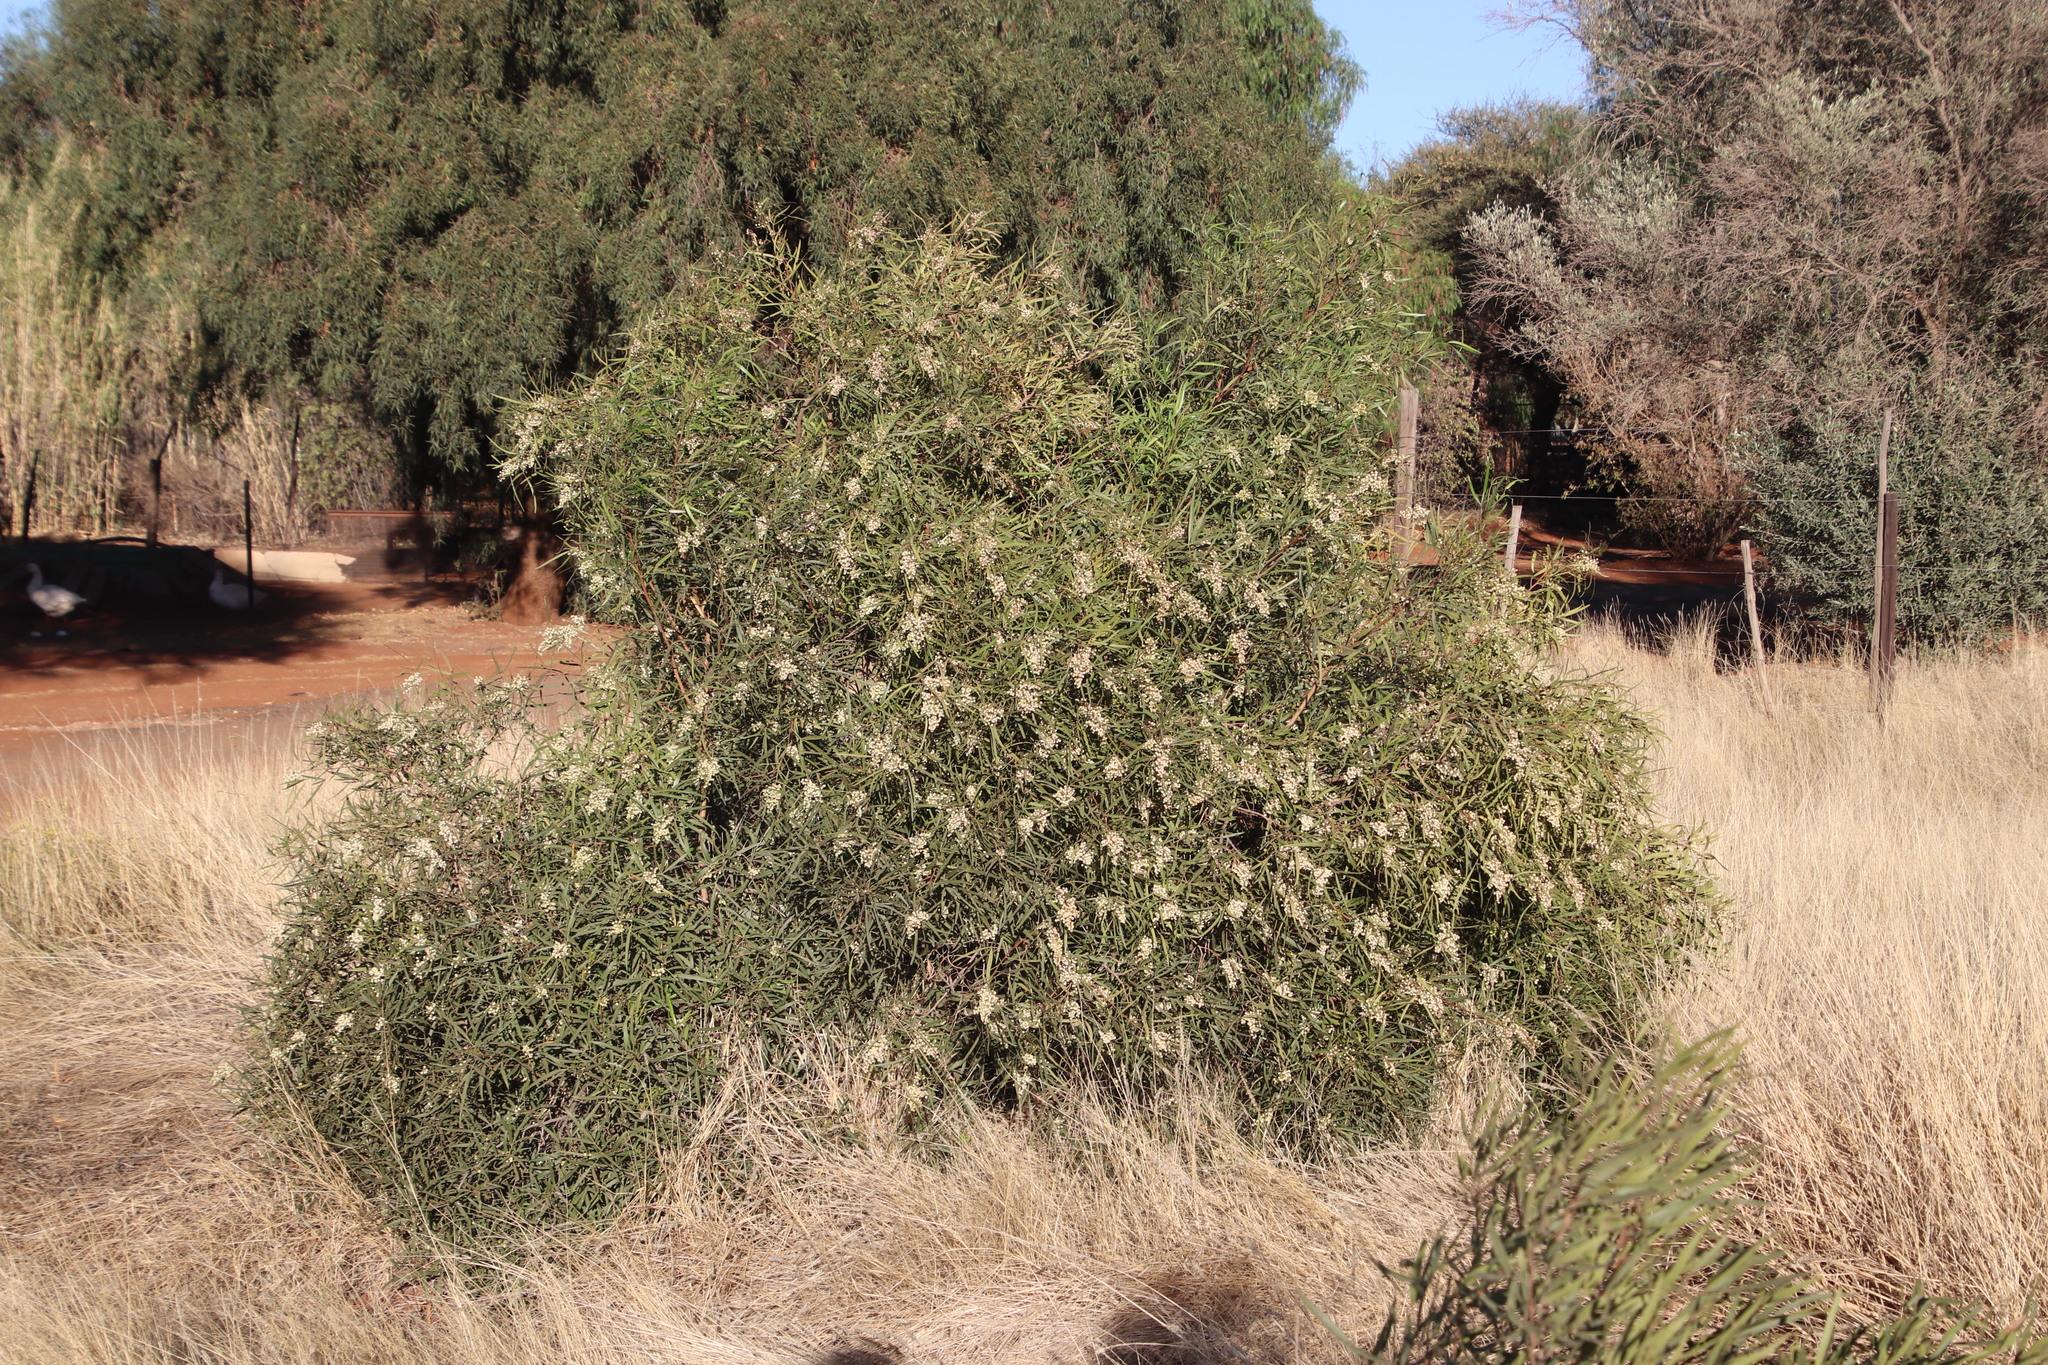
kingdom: Plantae
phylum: Tracheophyta
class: Magnoliopsida
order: Sapindales
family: Anacardiaceae
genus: Searsia
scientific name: Searsia lancea
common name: Cashew
